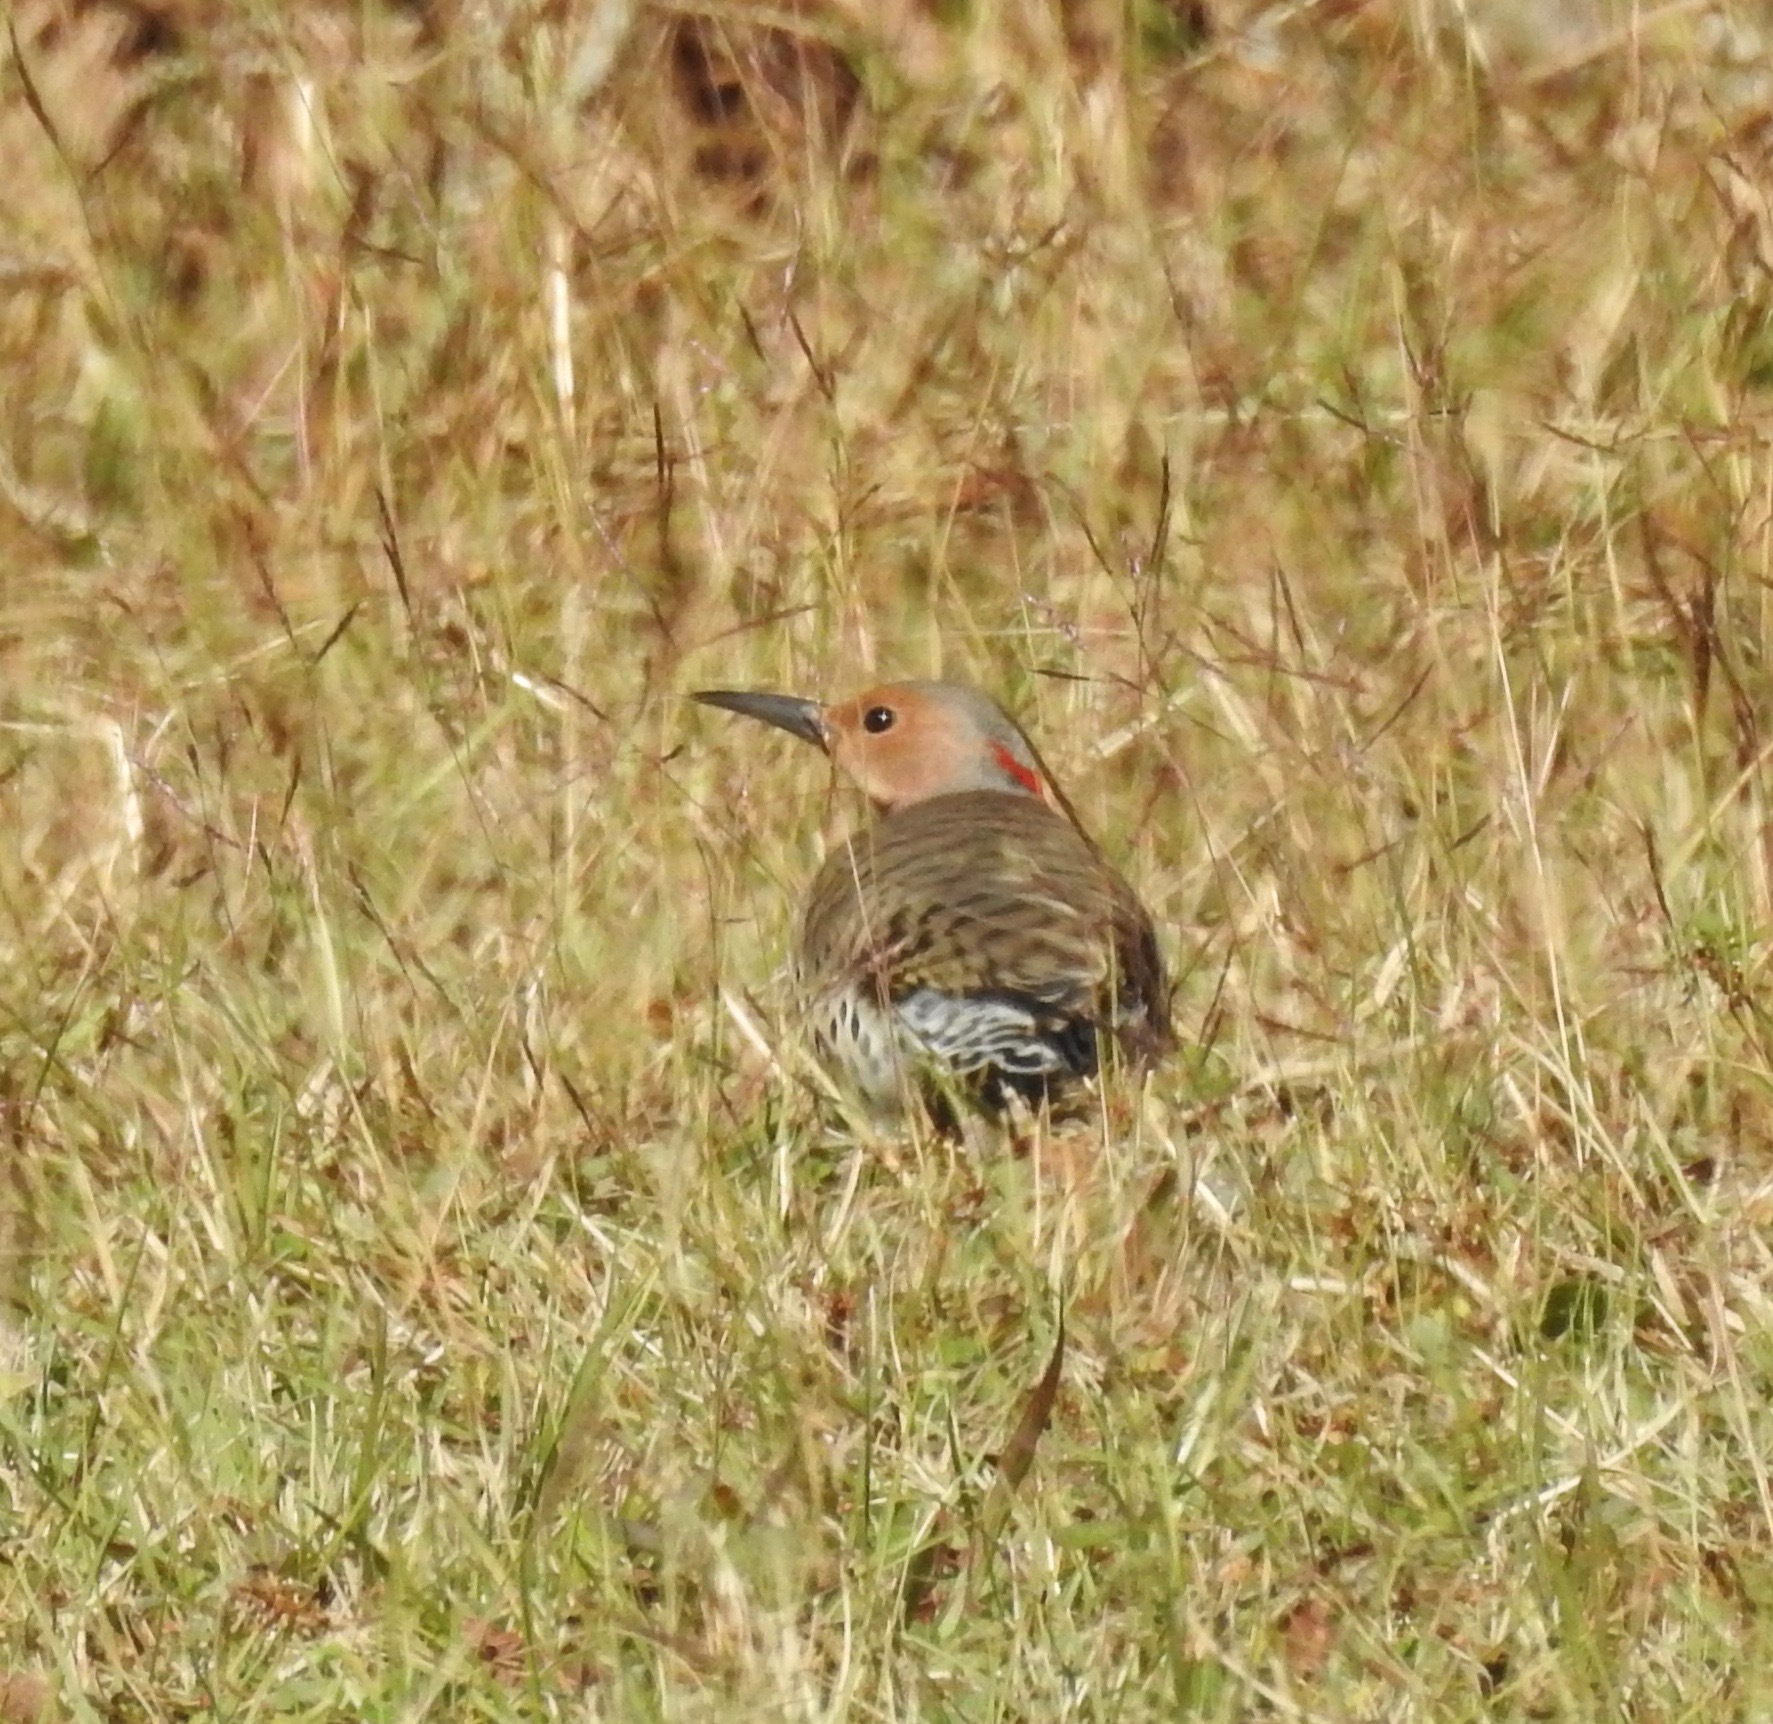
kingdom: Animalia
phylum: Chordata
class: Aves
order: Piciformes
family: Picidae
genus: Colaptes
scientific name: Colaptes auratus
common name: Northern flicker
